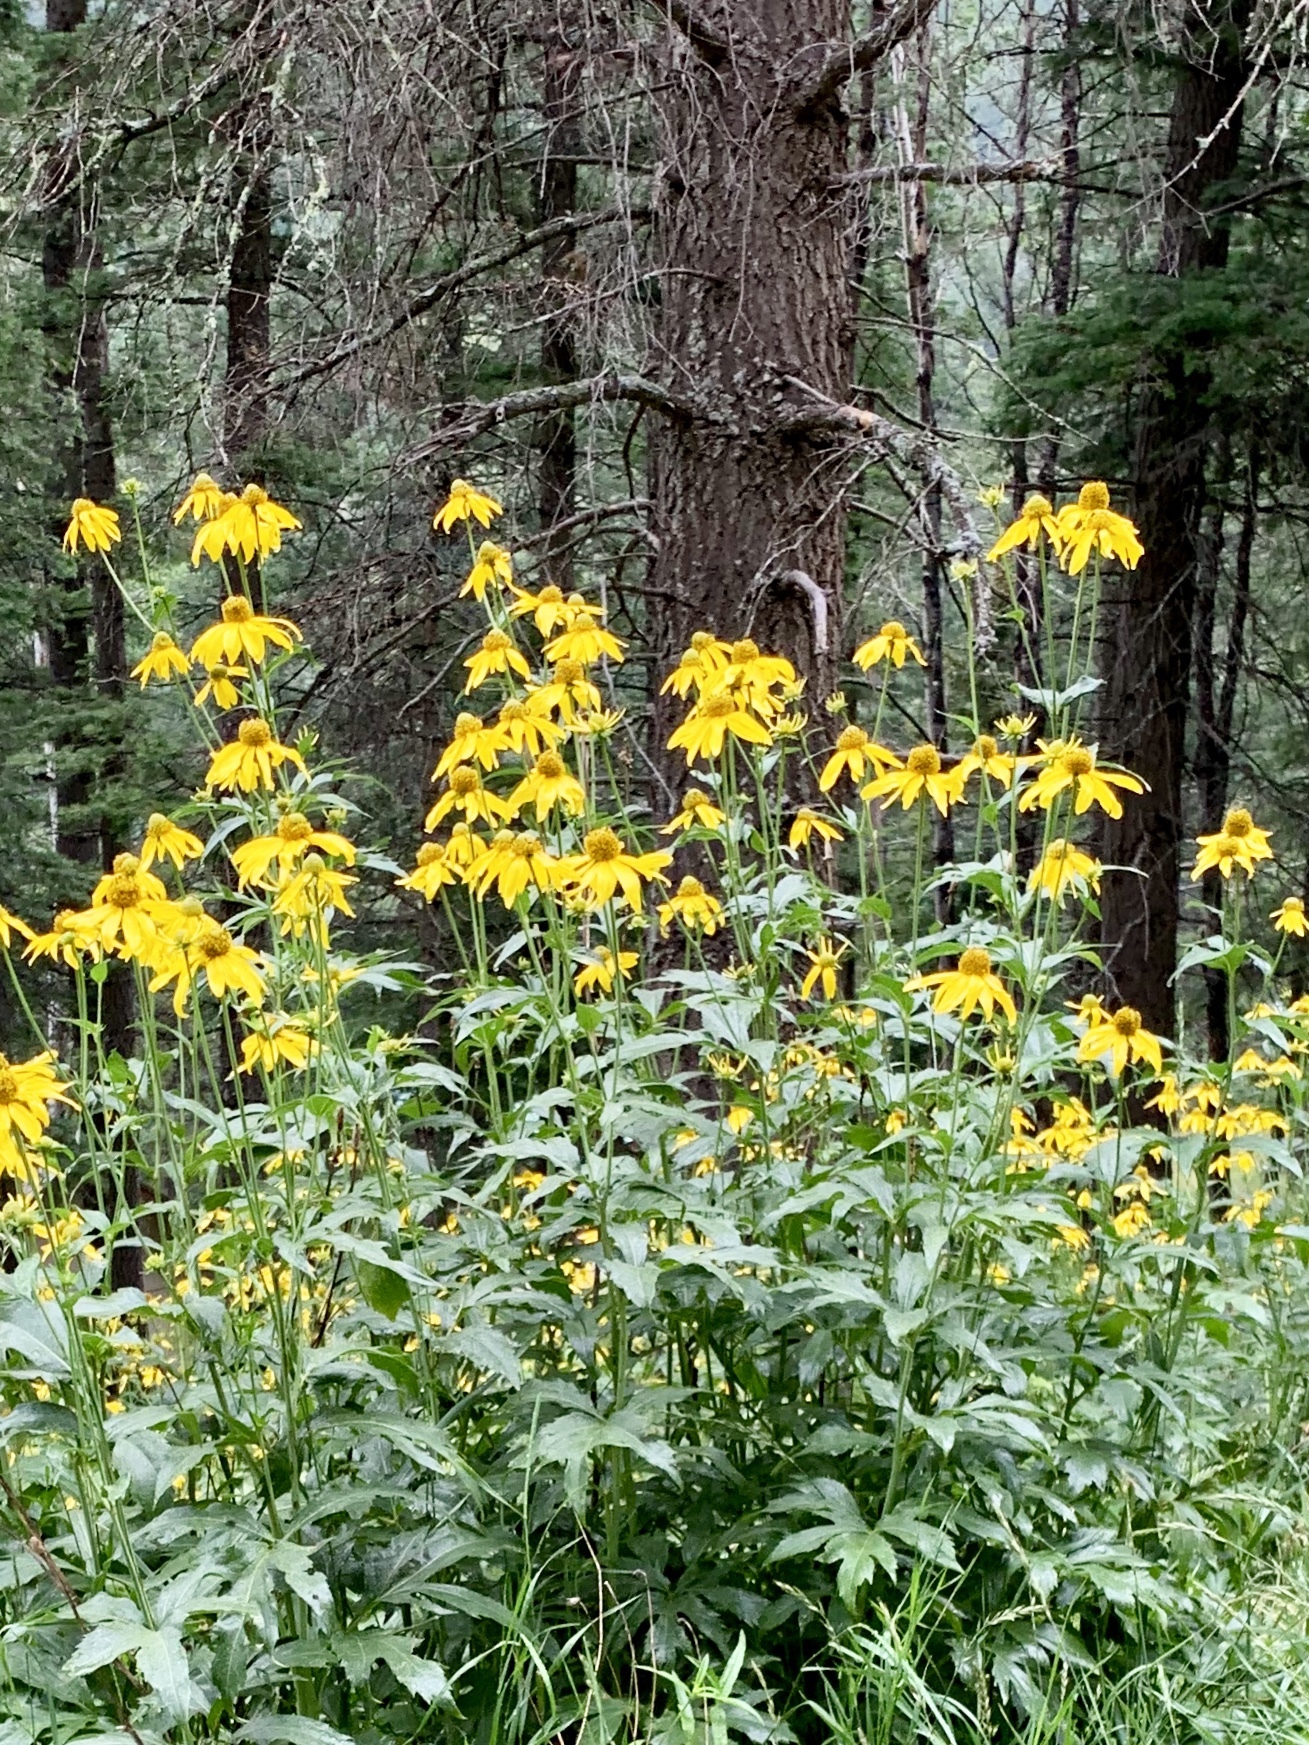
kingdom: Plantae
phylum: Tracheophyta
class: Magnoliopsida
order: Asterales
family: Asteraceae
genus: Rudbeckia
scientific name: Rudbeckia laciniata
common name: Coneflower
